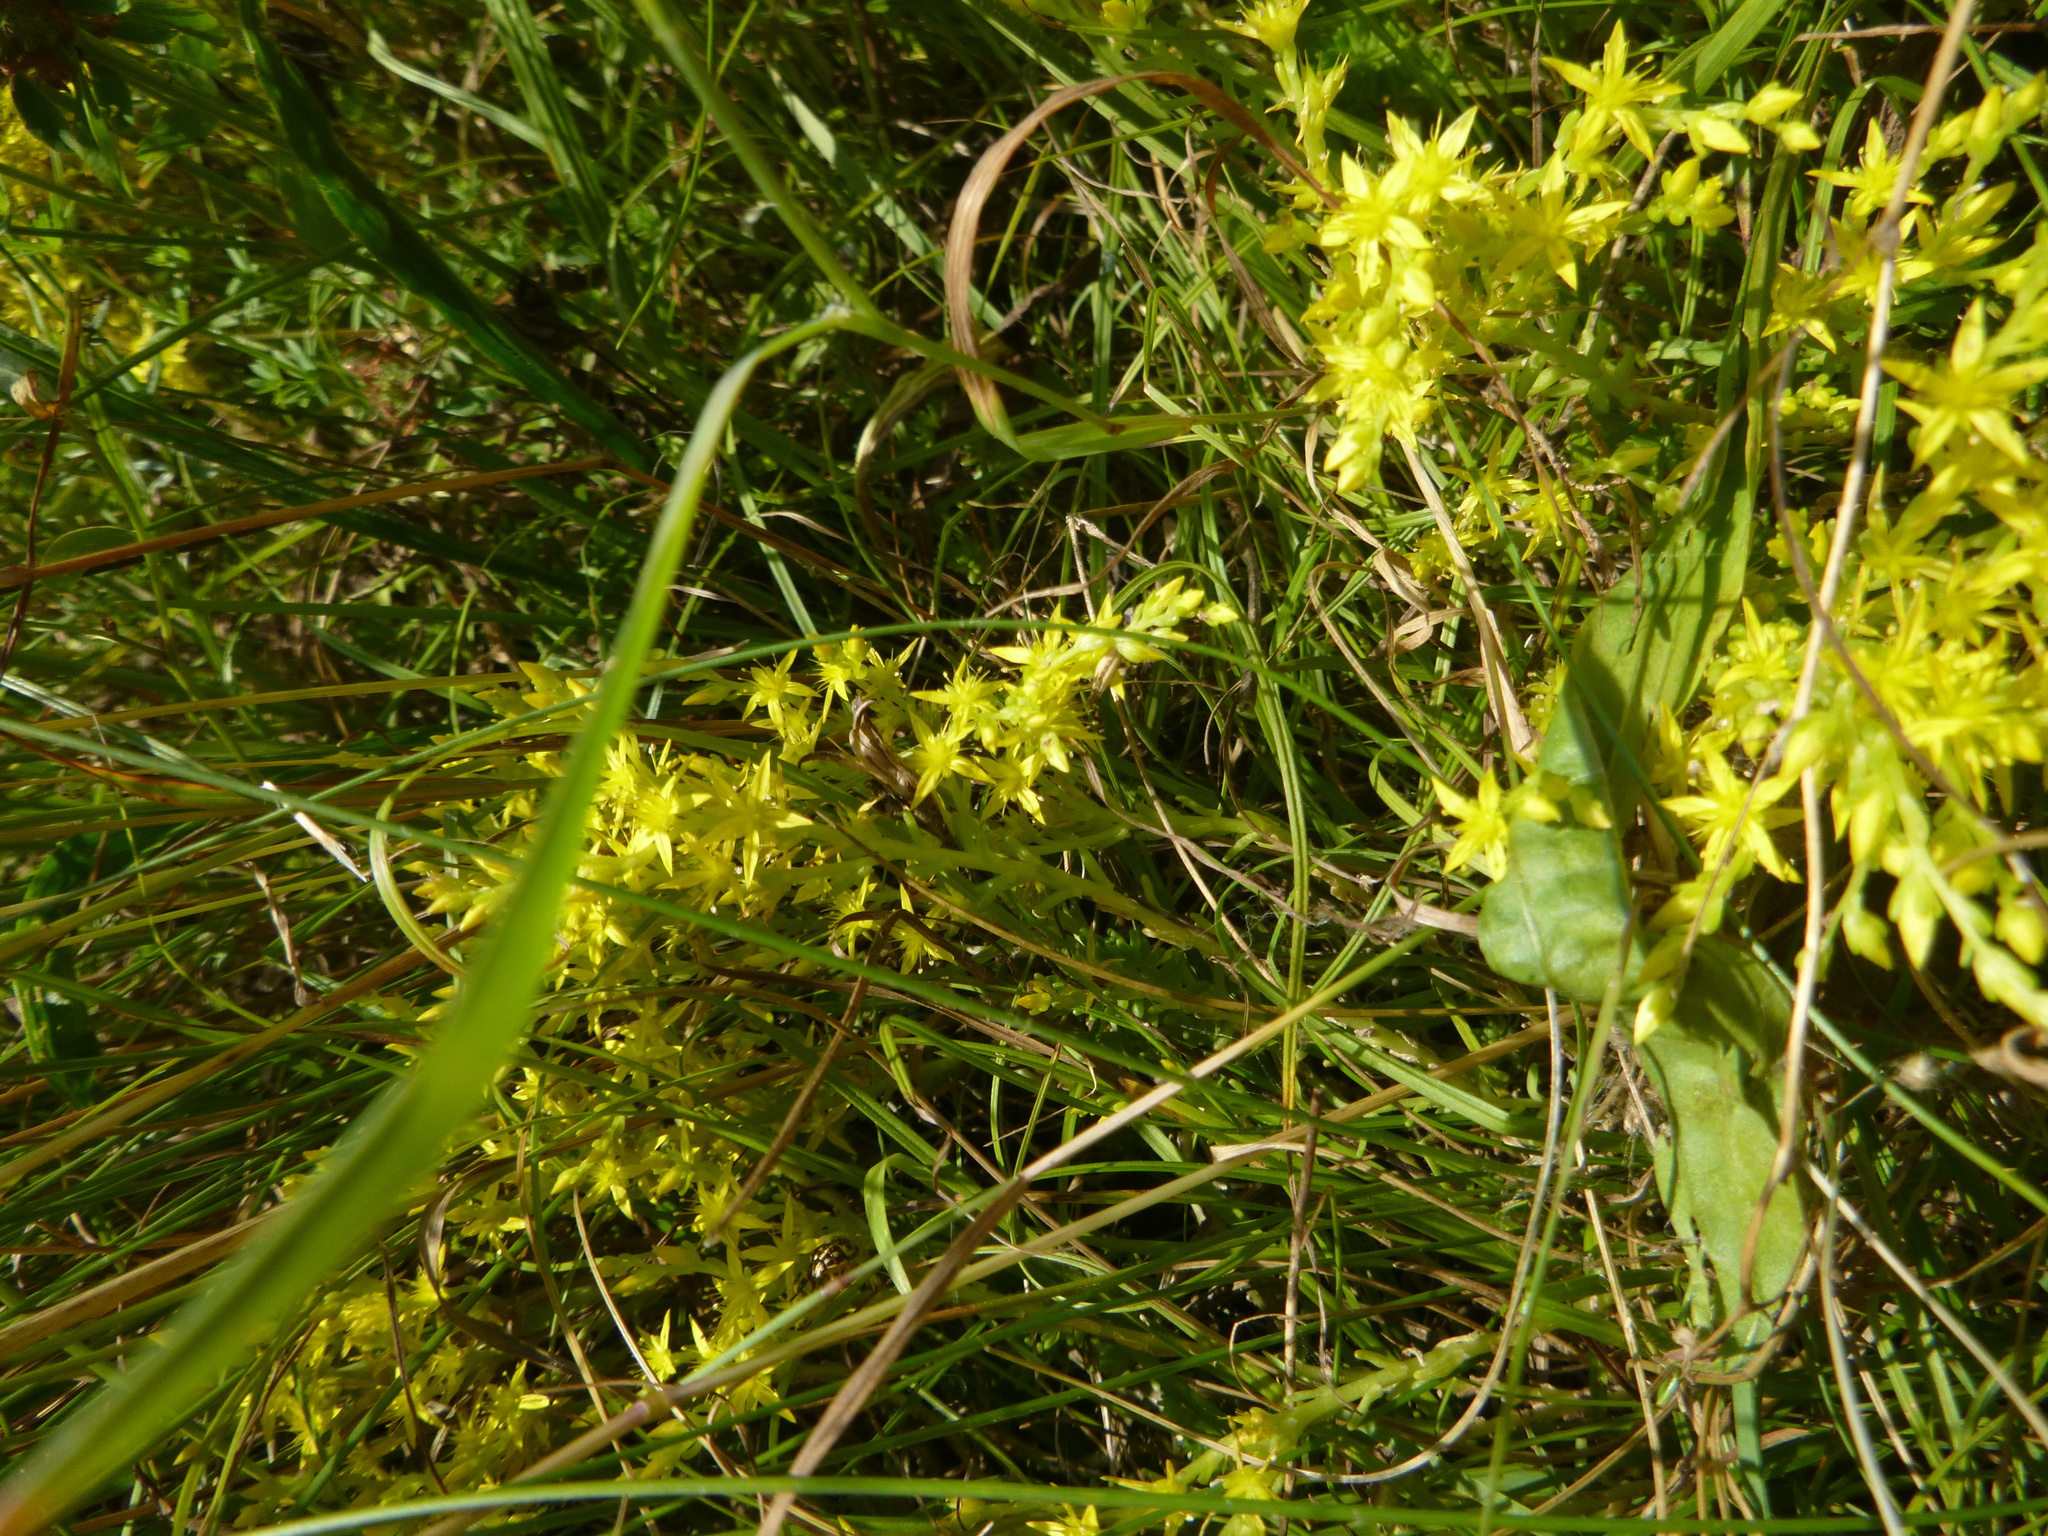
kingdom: Plantae
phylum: Tracheophyta
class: Magnoliopsida
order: Saxifragales
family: Crassulaceae
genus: Sedum
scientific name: Sedum sexangulare
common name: Tasteless stonecrop
